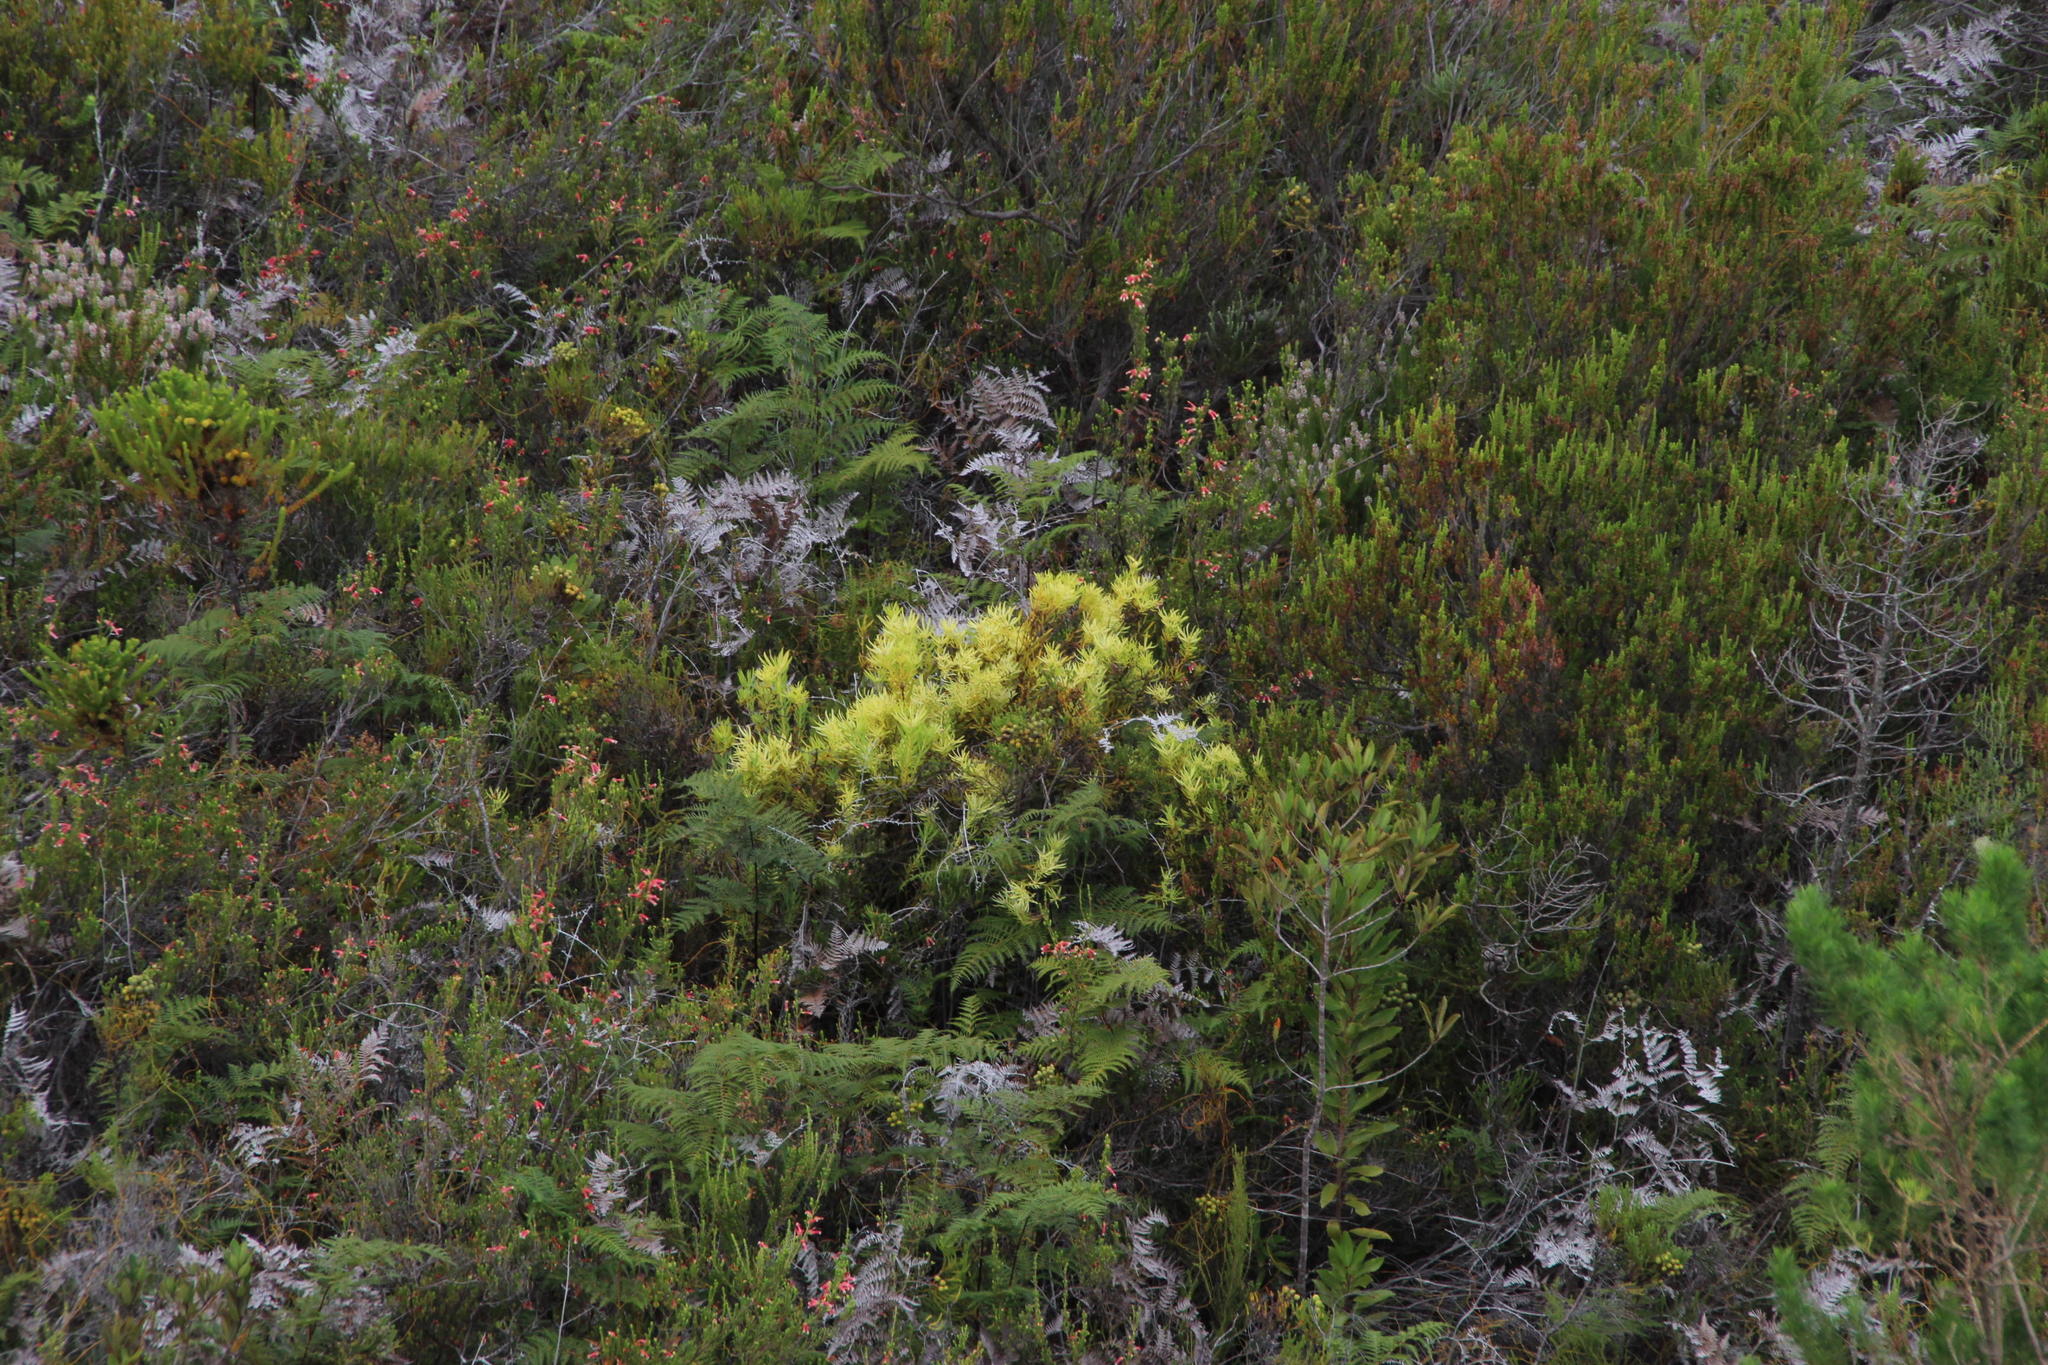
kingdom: Plantae
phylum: Tracheophyta
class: Magnoliopsida
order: Proteales
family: Proteaceae
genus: Leucadendron
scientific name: Leucadendron salignum
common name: Common sunshine conebush
